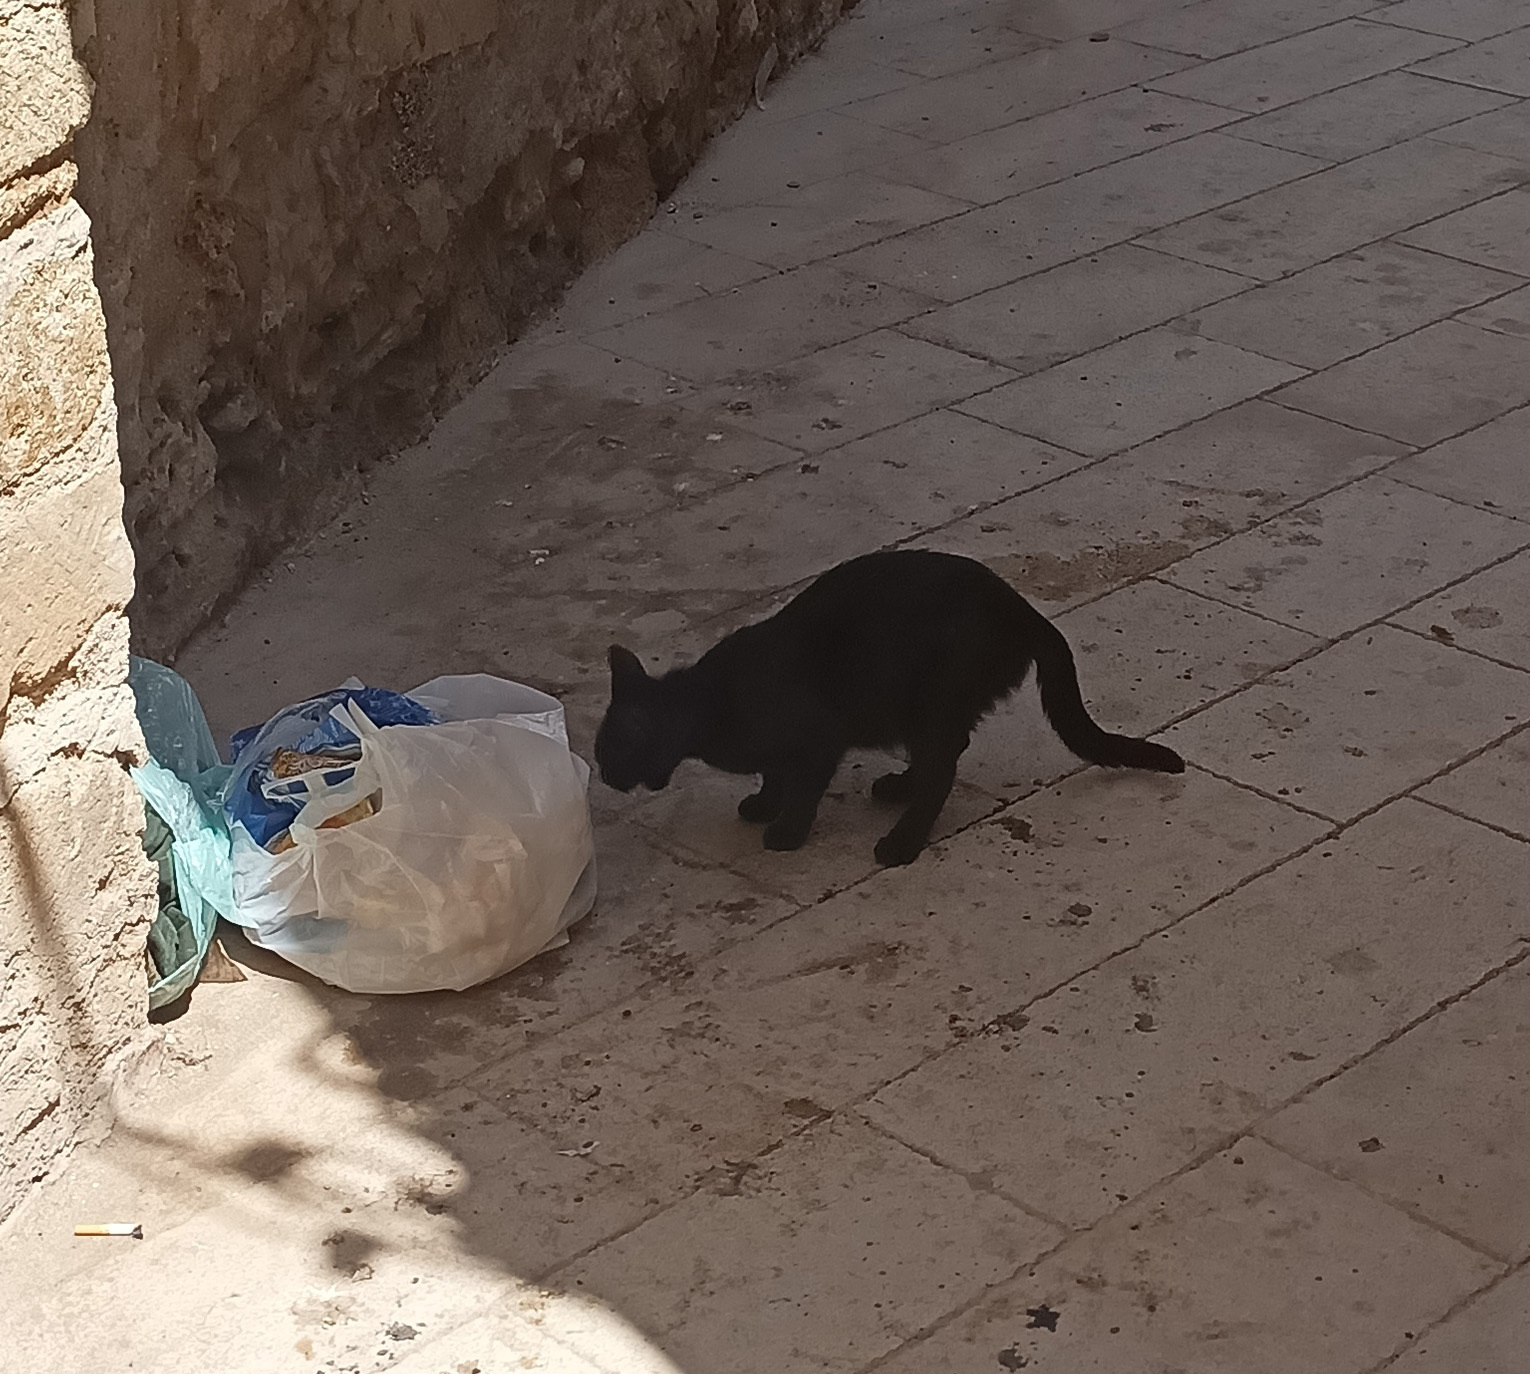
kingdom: Animalia
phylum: Chordata
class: Mammalia
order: Carnivora
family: Felidae
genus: Felis
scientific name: Felis catus
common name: Domestic cat
